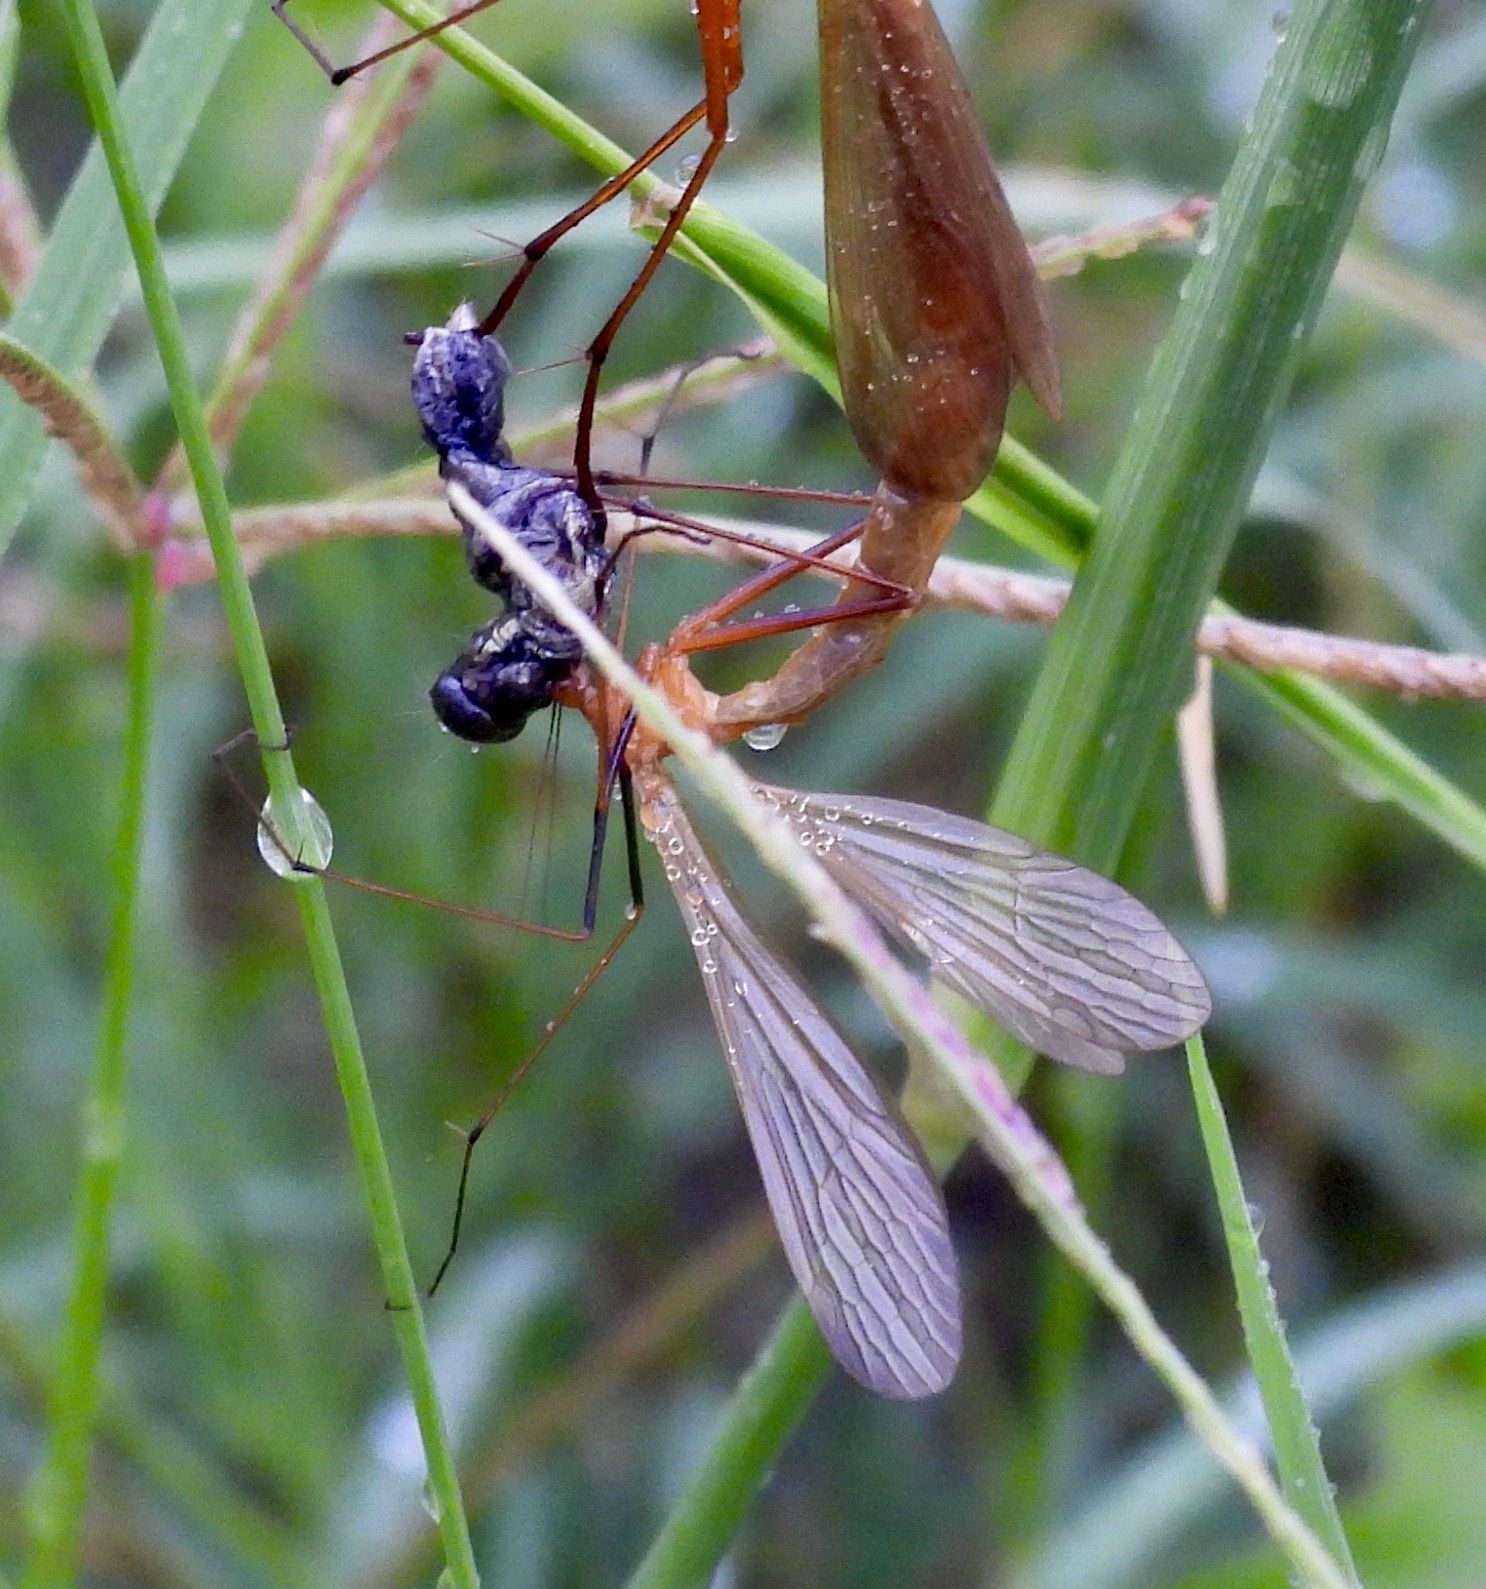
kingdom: Animalia
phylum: Arthropoda
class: Insecta
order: Mecoptera
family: Bittacidae
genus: Bittacus
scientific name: Bittacus texanus
